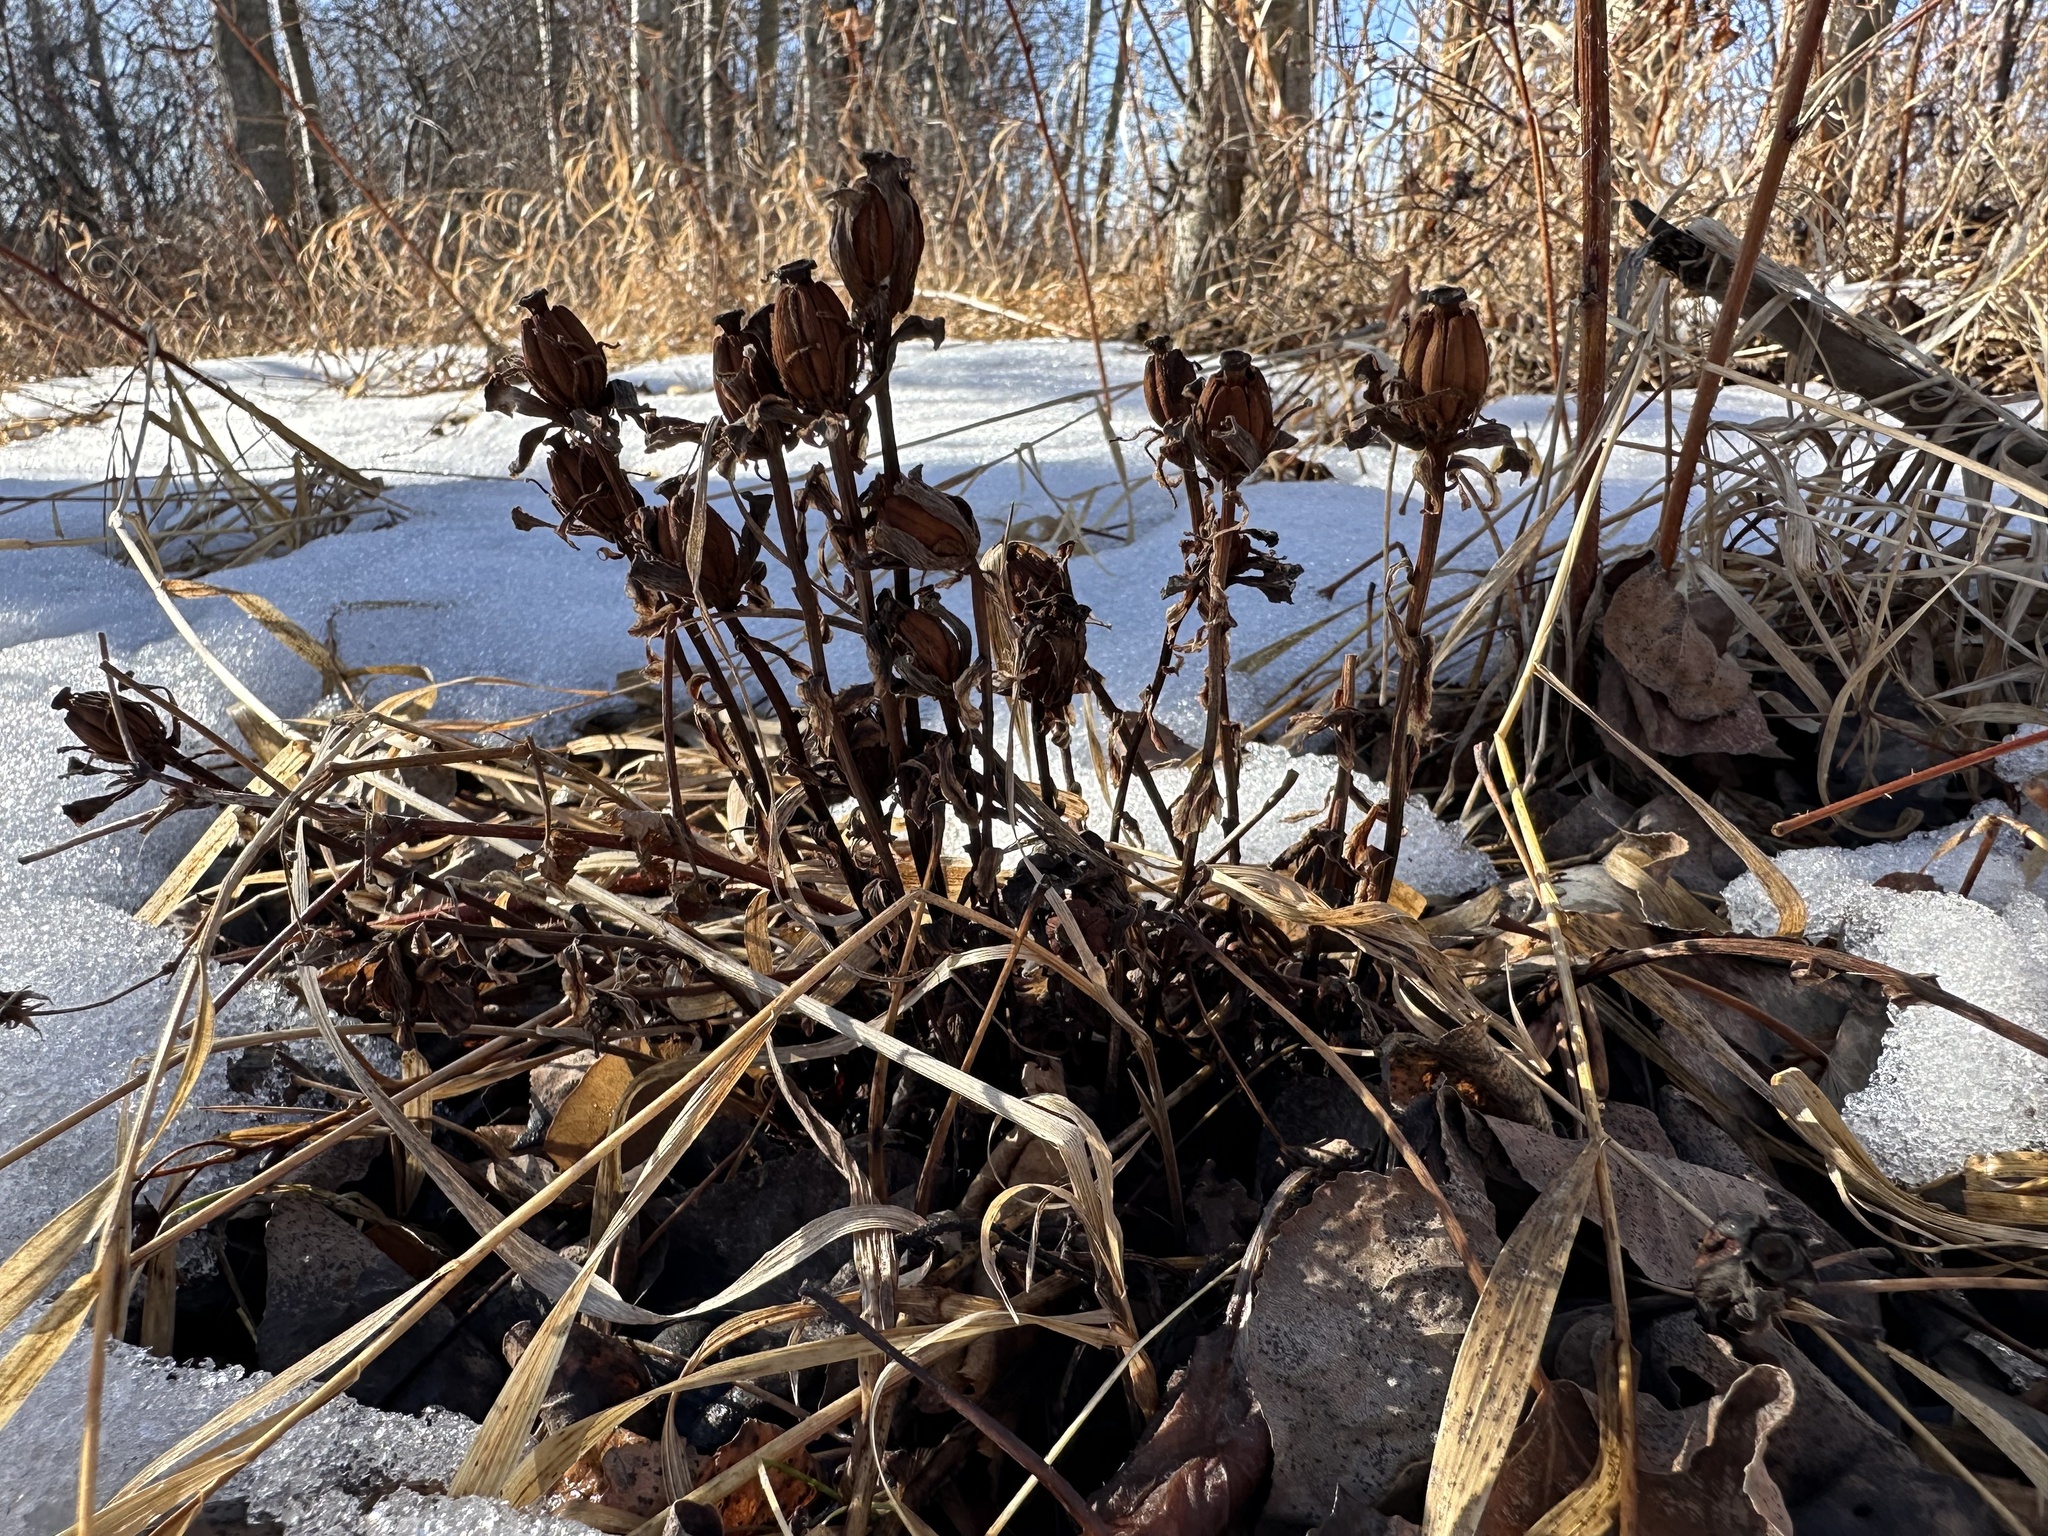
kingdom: Plantae
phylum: Tracheophyta
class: Magnoliopsida
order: Ericales
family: Ericaceae
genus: Monotropa
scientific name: Monotropa uniflora
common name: Convulsion root
